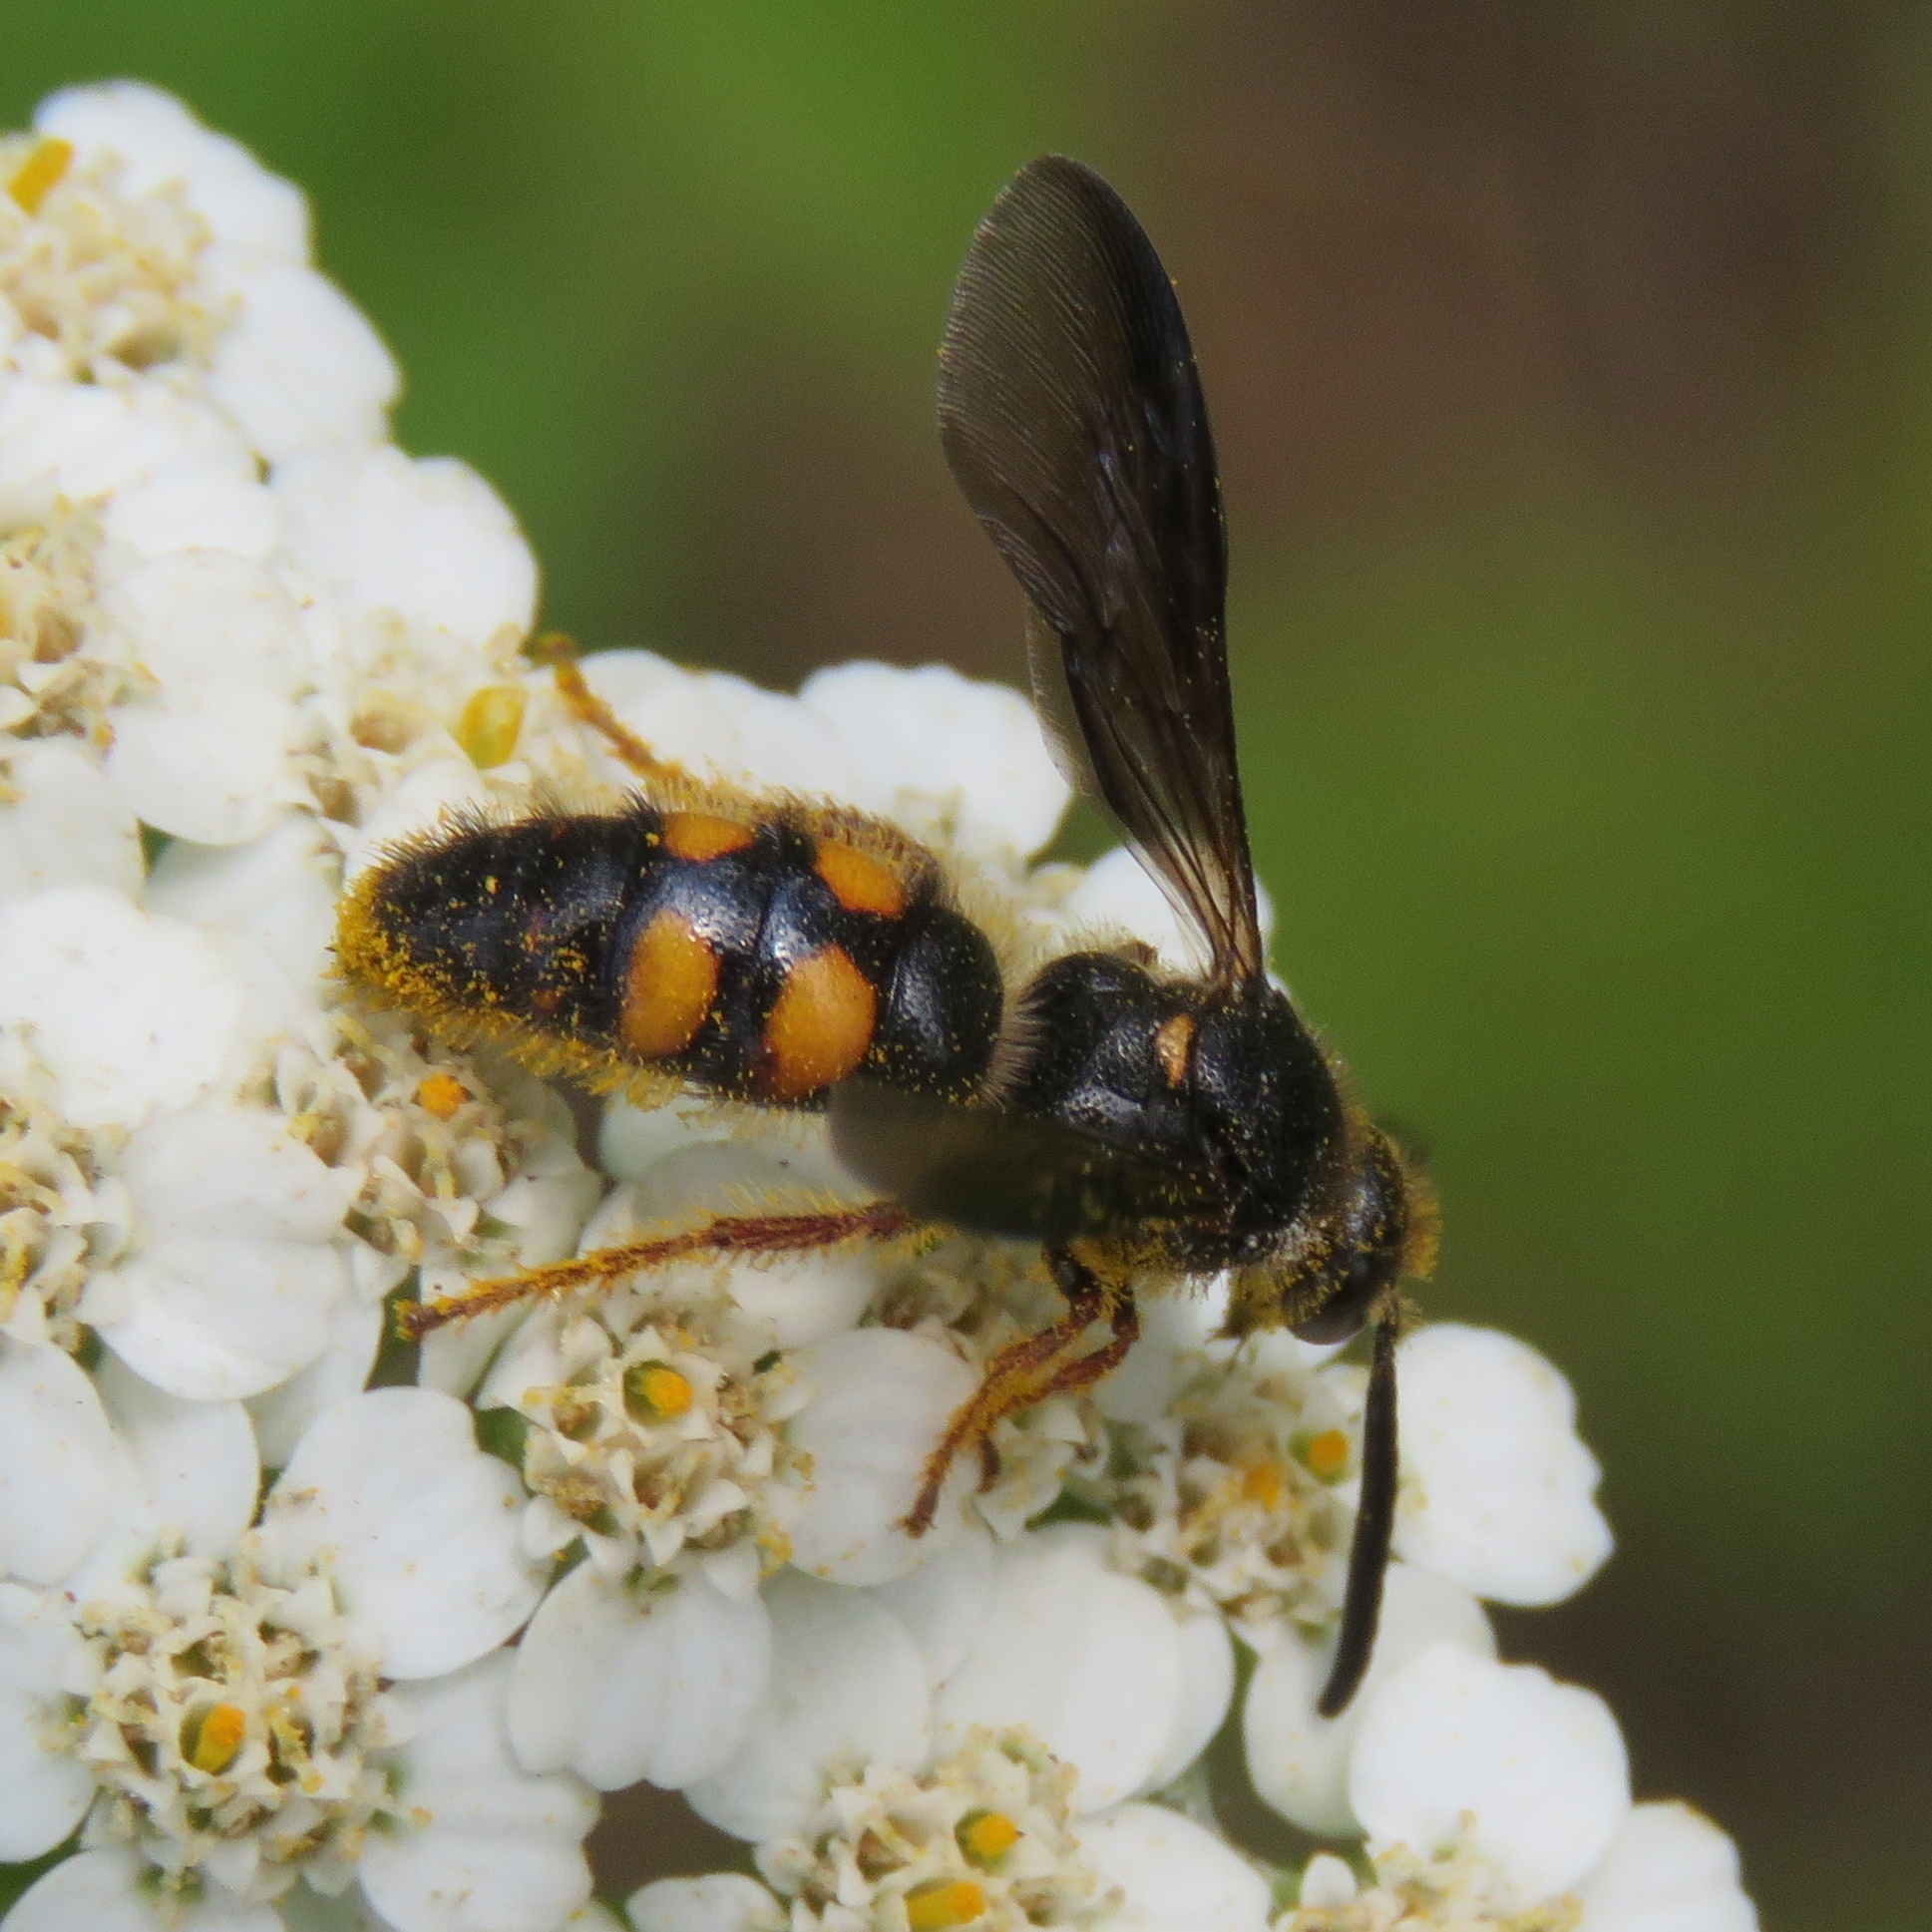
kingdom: Animalia
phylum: Arthropoda
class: Insecta
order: Hymenoptera
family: Scoliidae
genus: Scolia
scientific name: Scolia nobilitata
